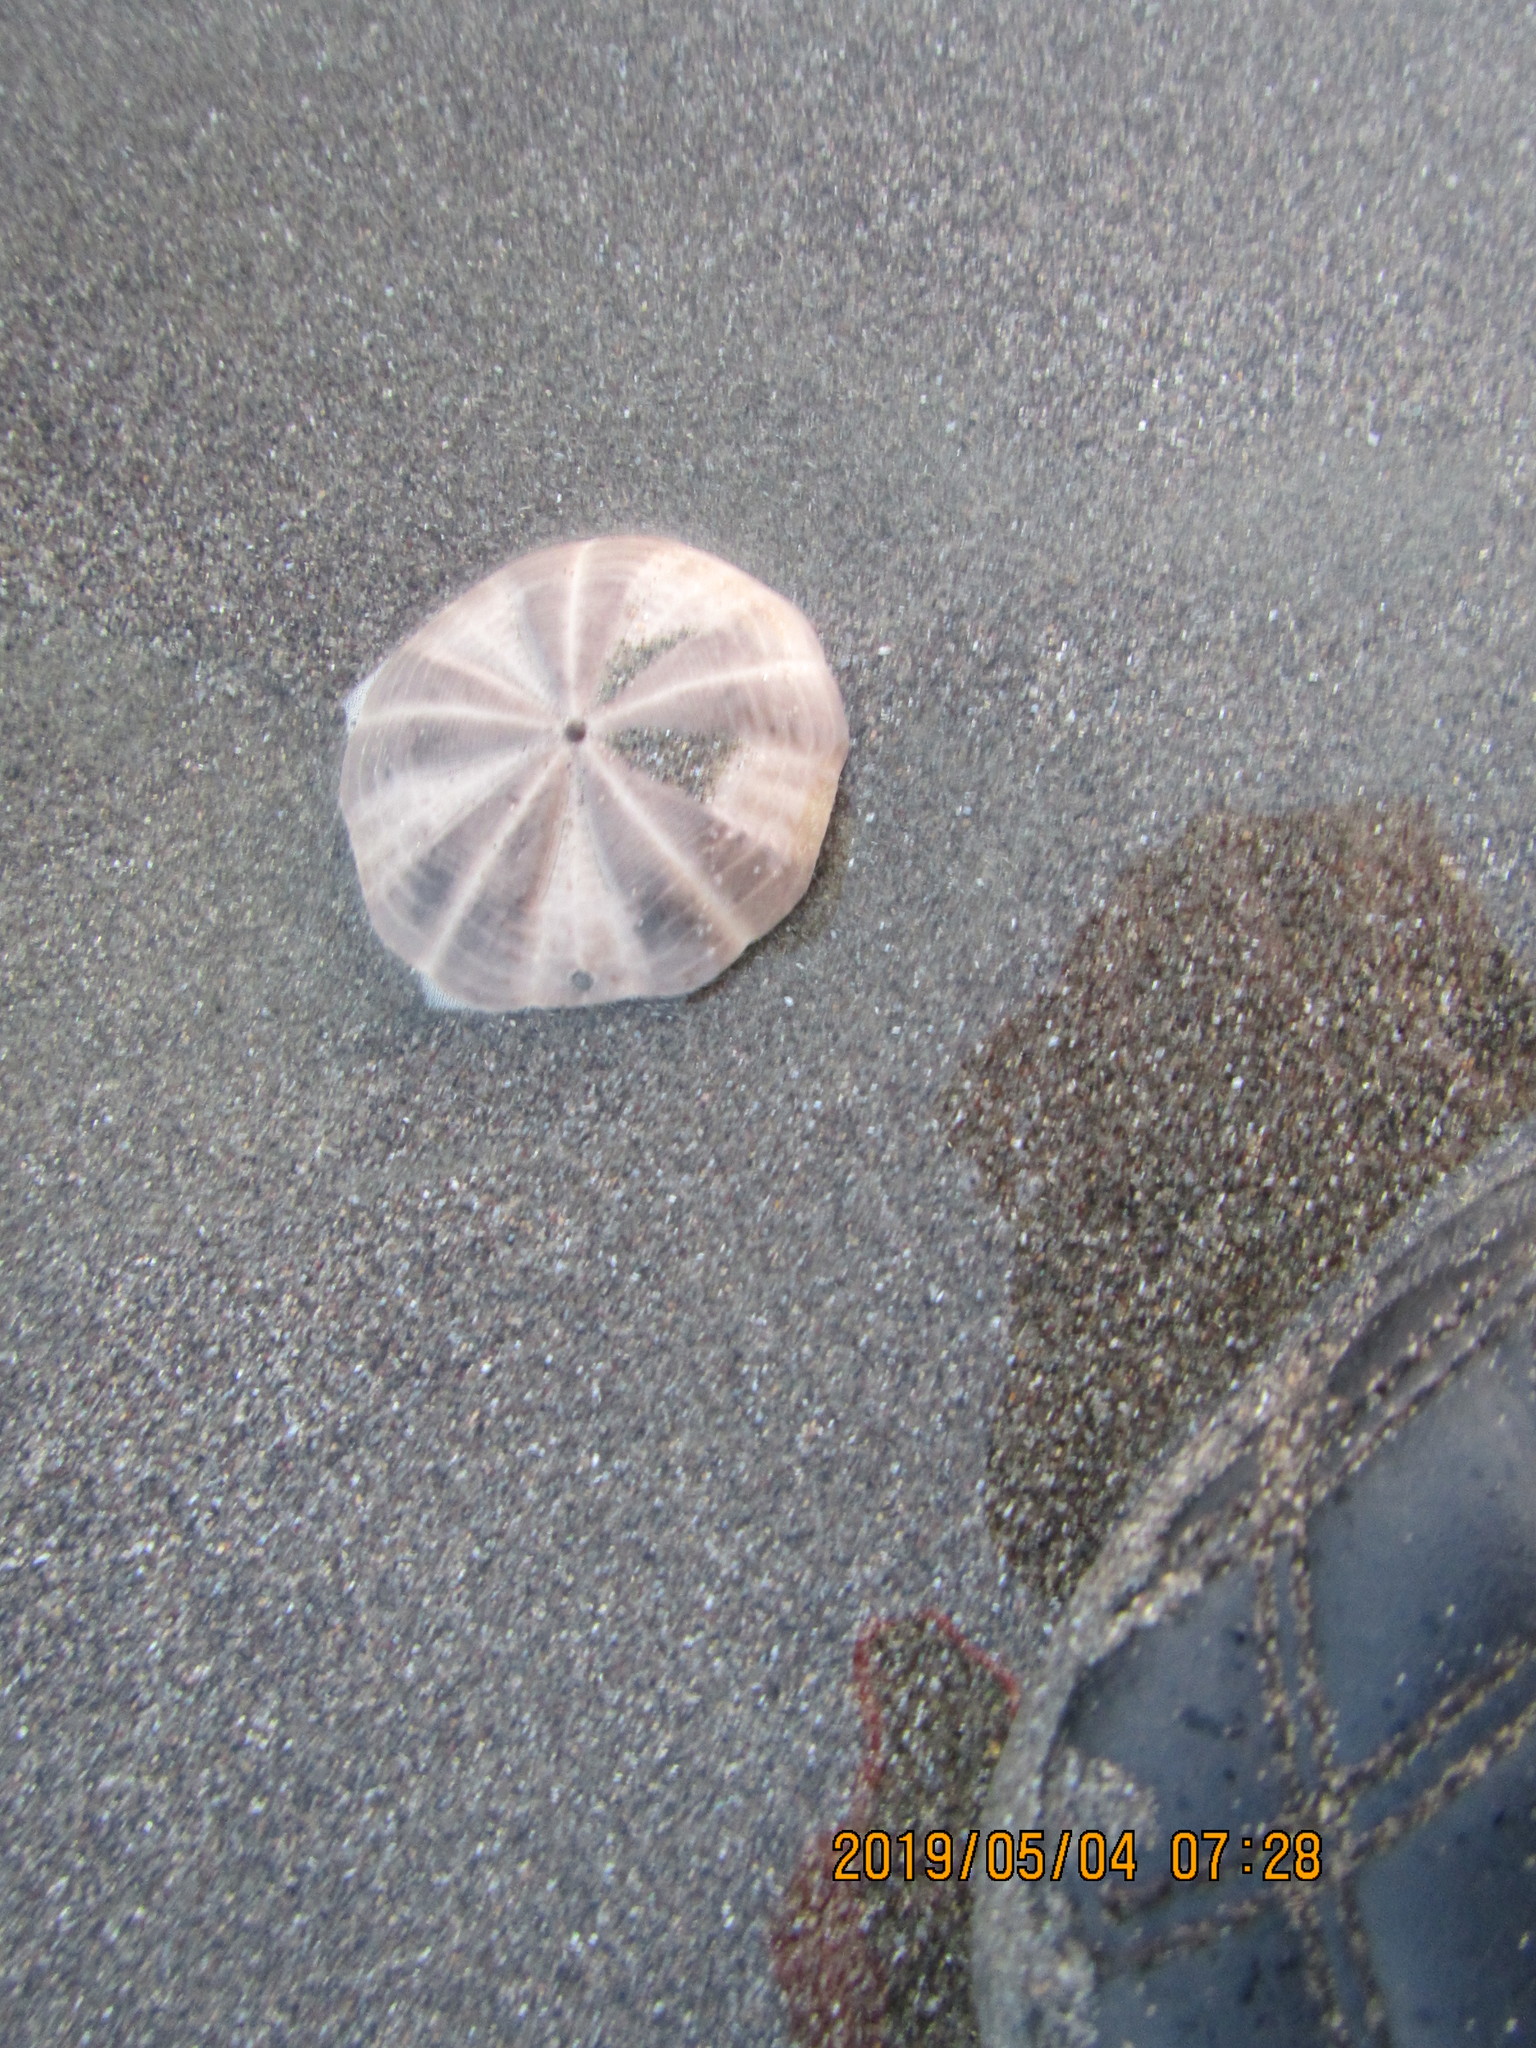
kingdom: Animalia
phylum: Echinodermata
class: Echinoidea
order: Clypeasteroida
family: Clypeasteridae
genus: Fellaster
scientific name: Fellaster zelandiae
